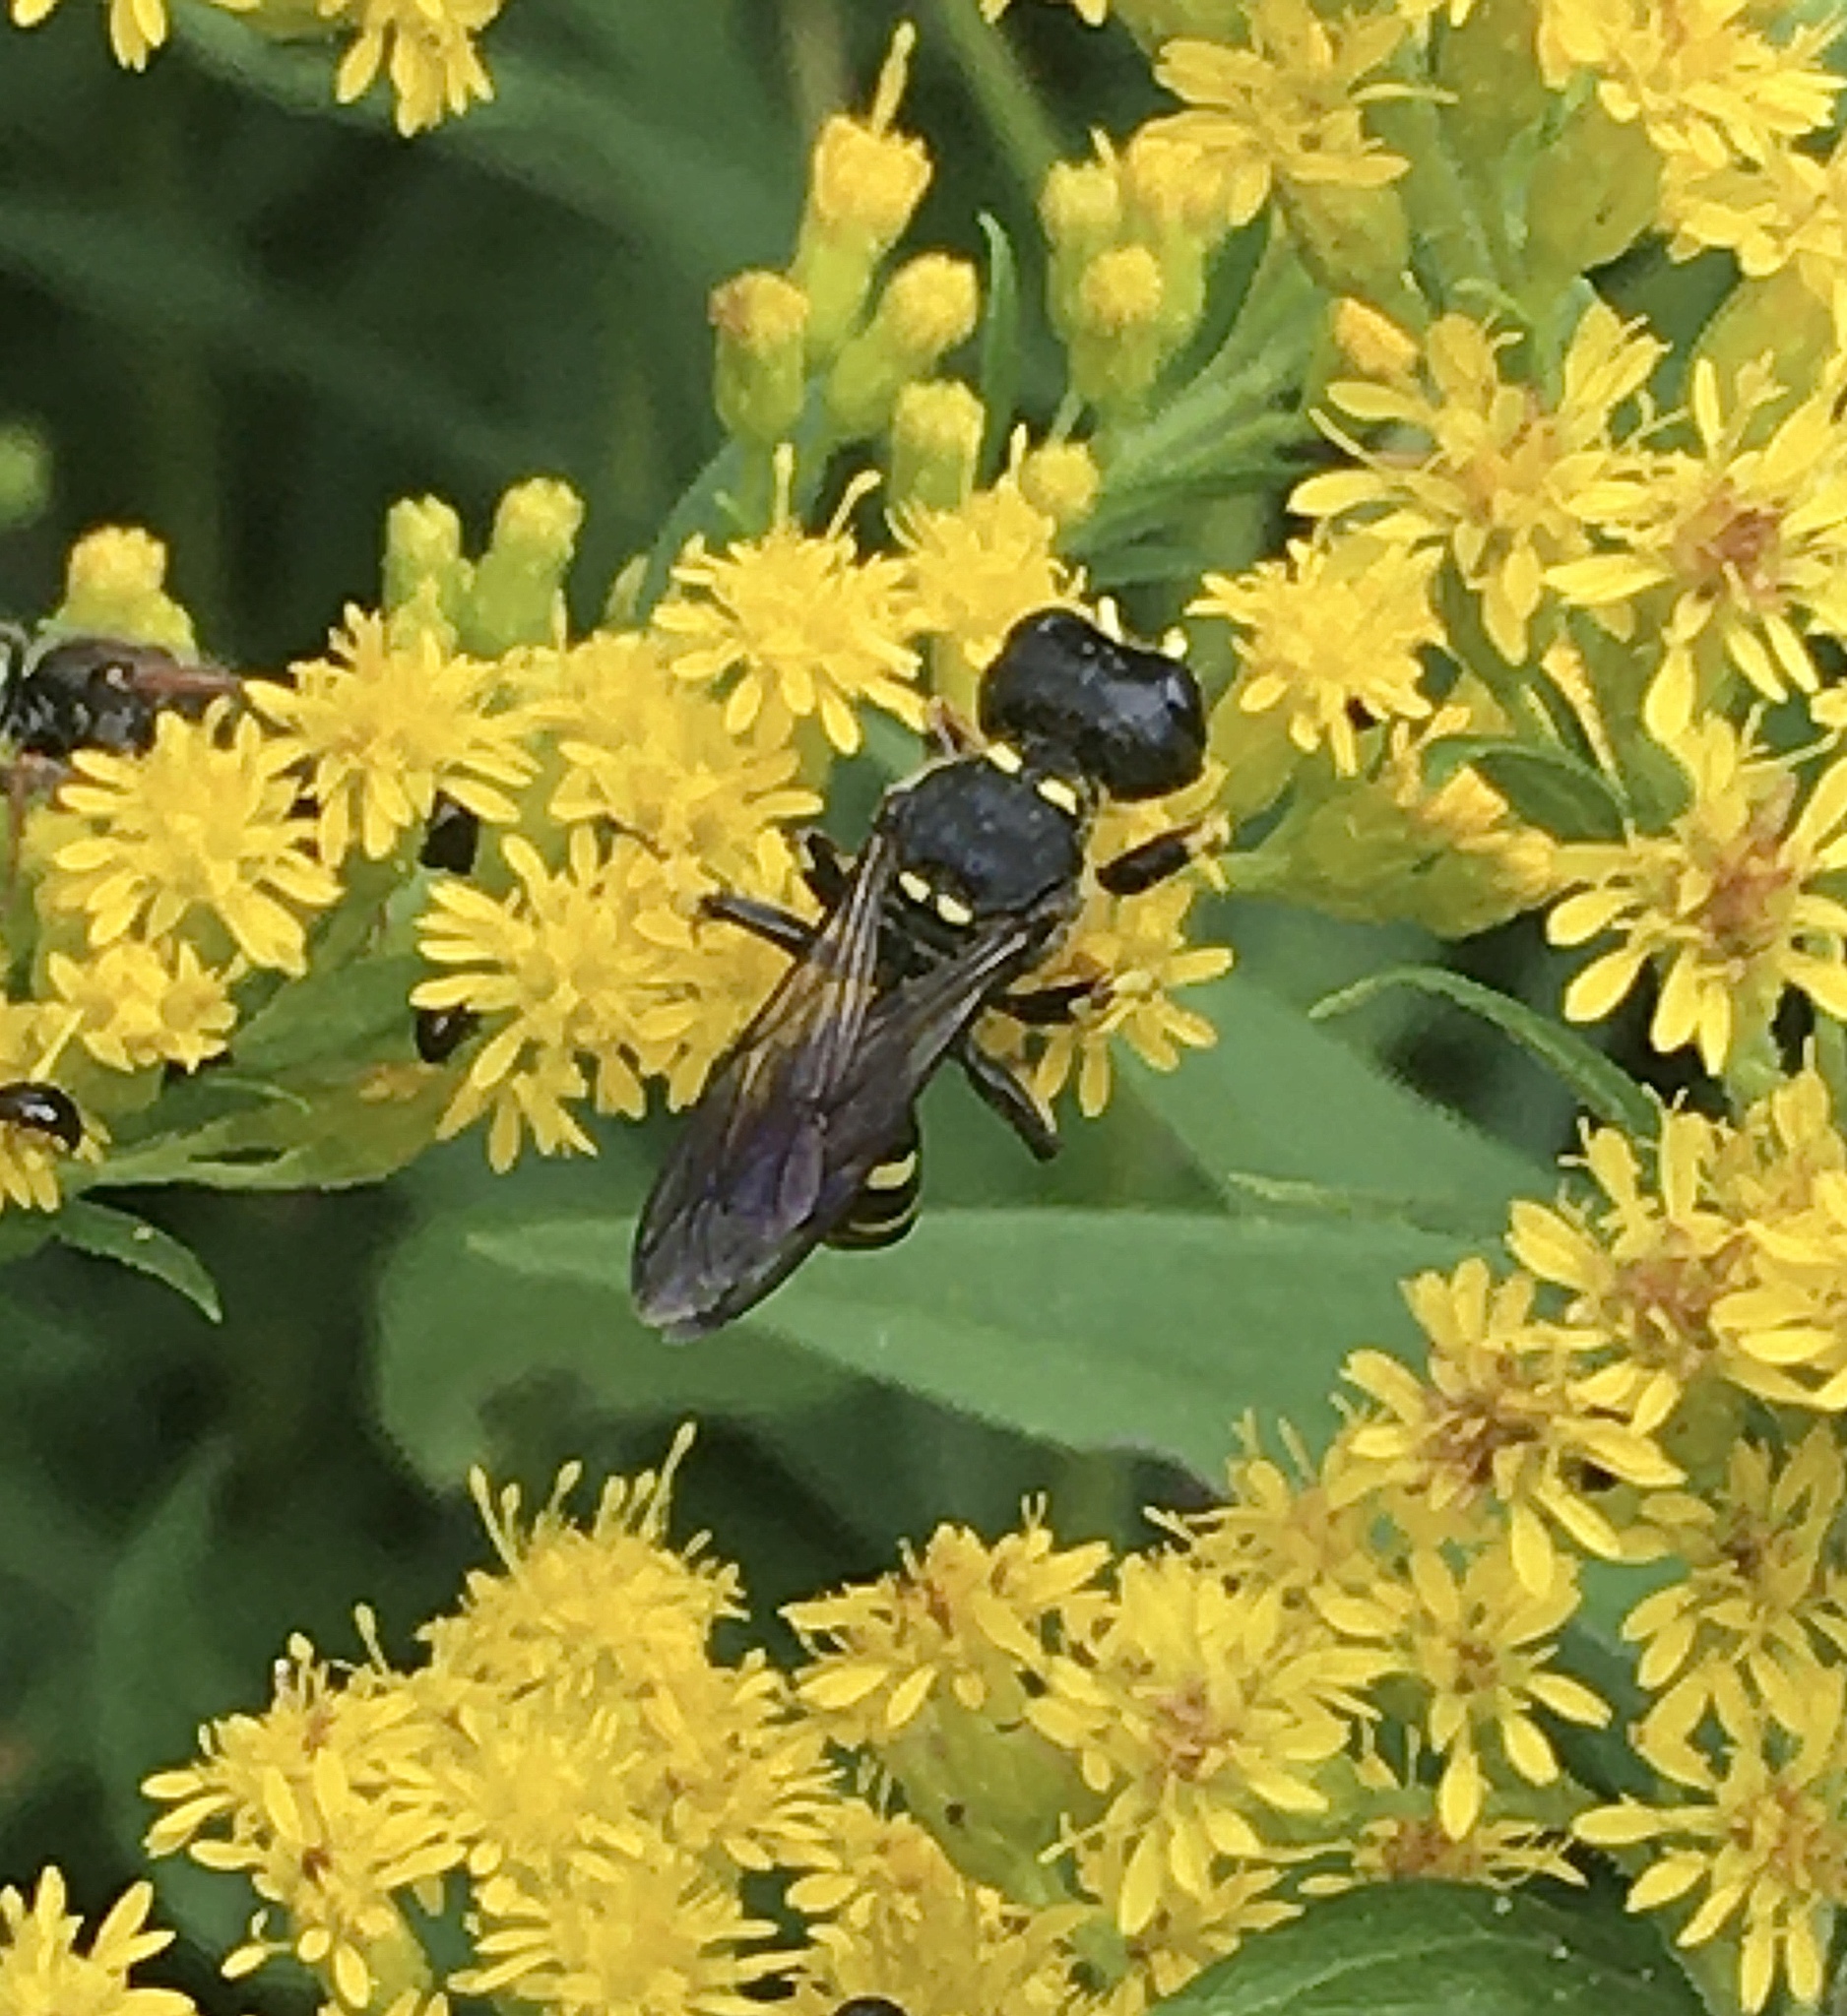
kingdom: Animalia
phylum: Arthropoda
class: Insecta
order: Hymenoptera
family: Crabronidae
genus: Ectemnius
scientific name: Ectemnius maculosus
